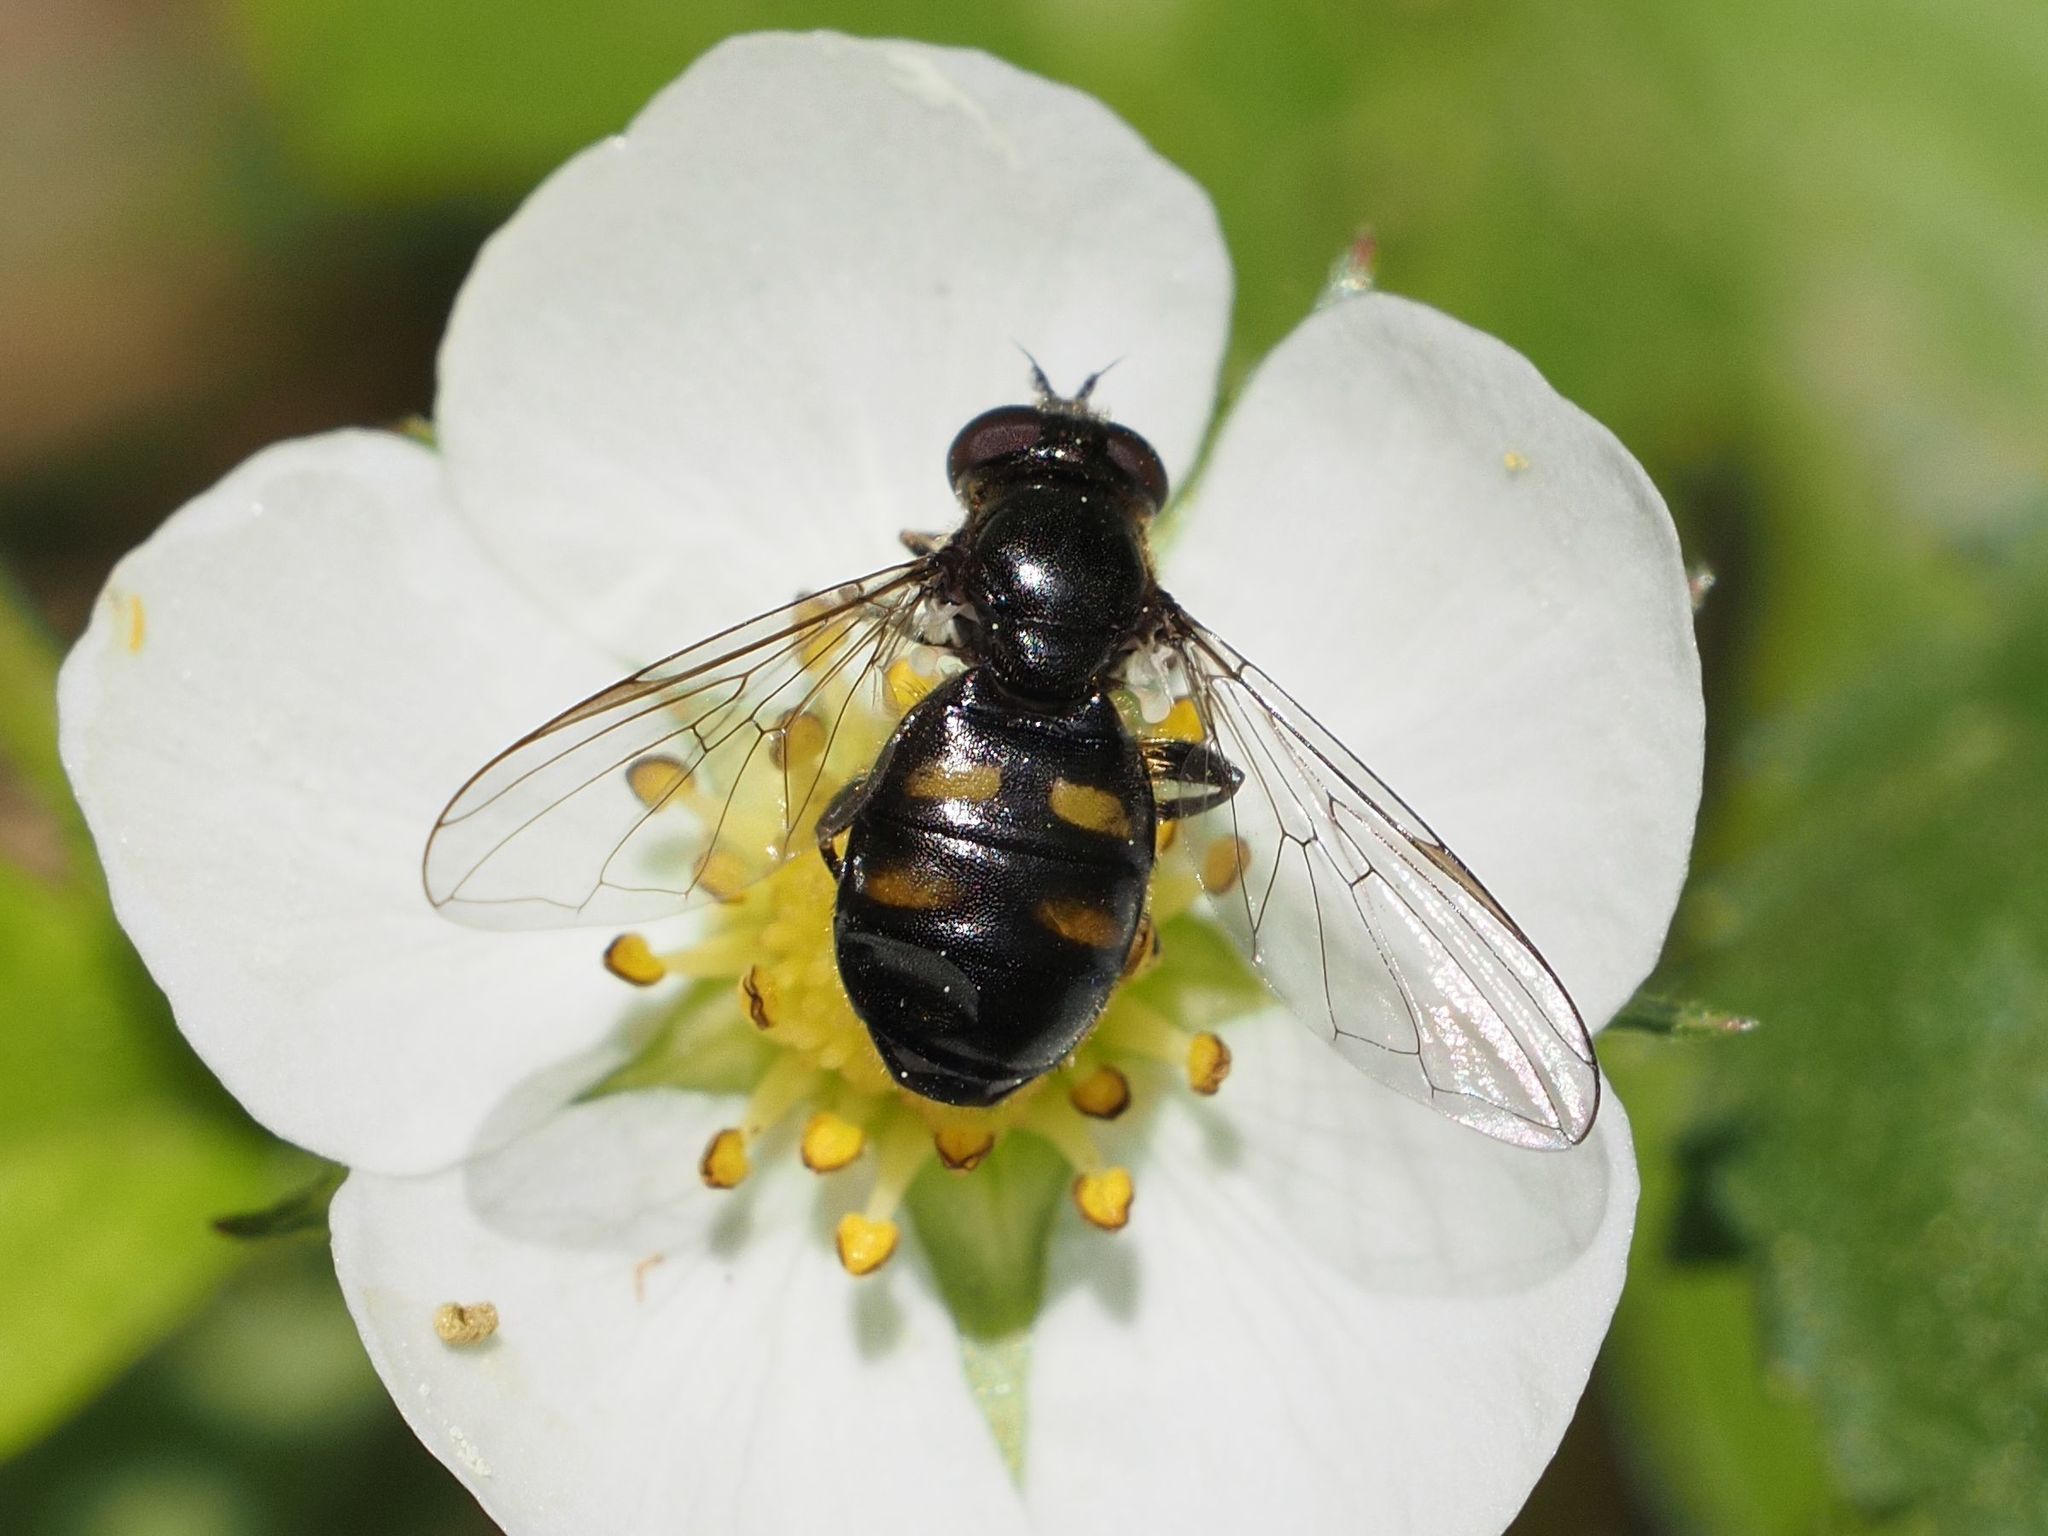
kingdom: Animalia
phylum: Arthropoda
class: Insecta
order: Diptera
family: Syrphidae
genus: Pipiza
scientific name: Pipiza quadrimaculata
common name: Four-spotted pipiza
